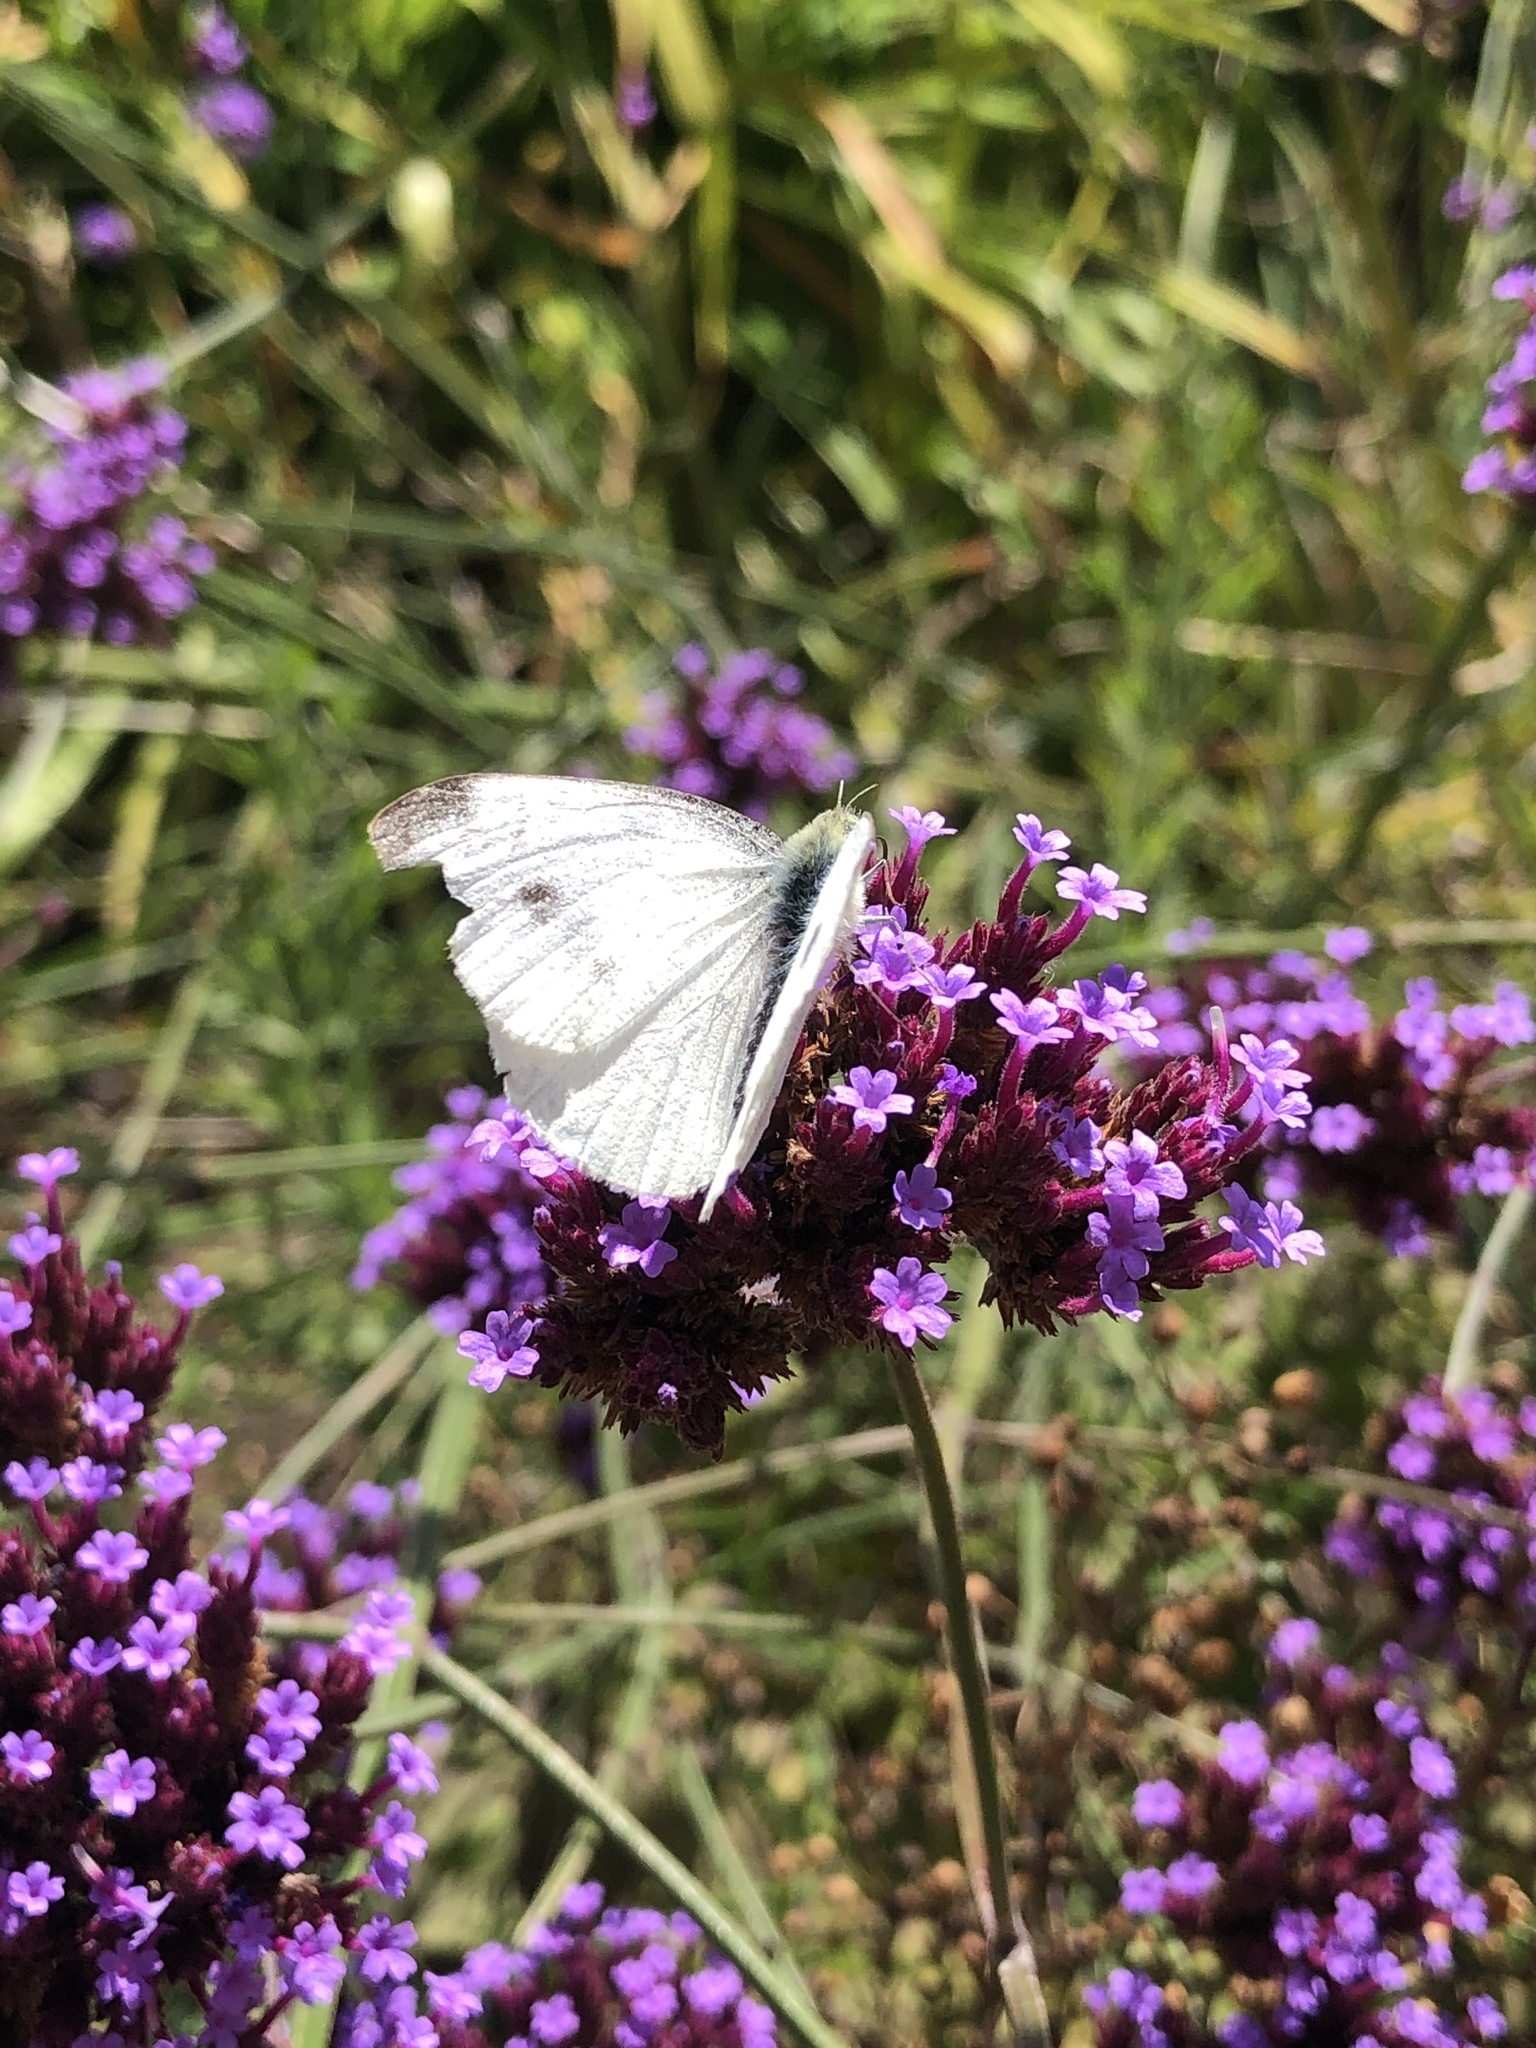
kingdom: Animalia
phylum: Arthropoda
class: Insecta
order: Lepidoptera
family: Pieridae
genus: Pieris
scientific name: Pieris rapae
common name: Small white
